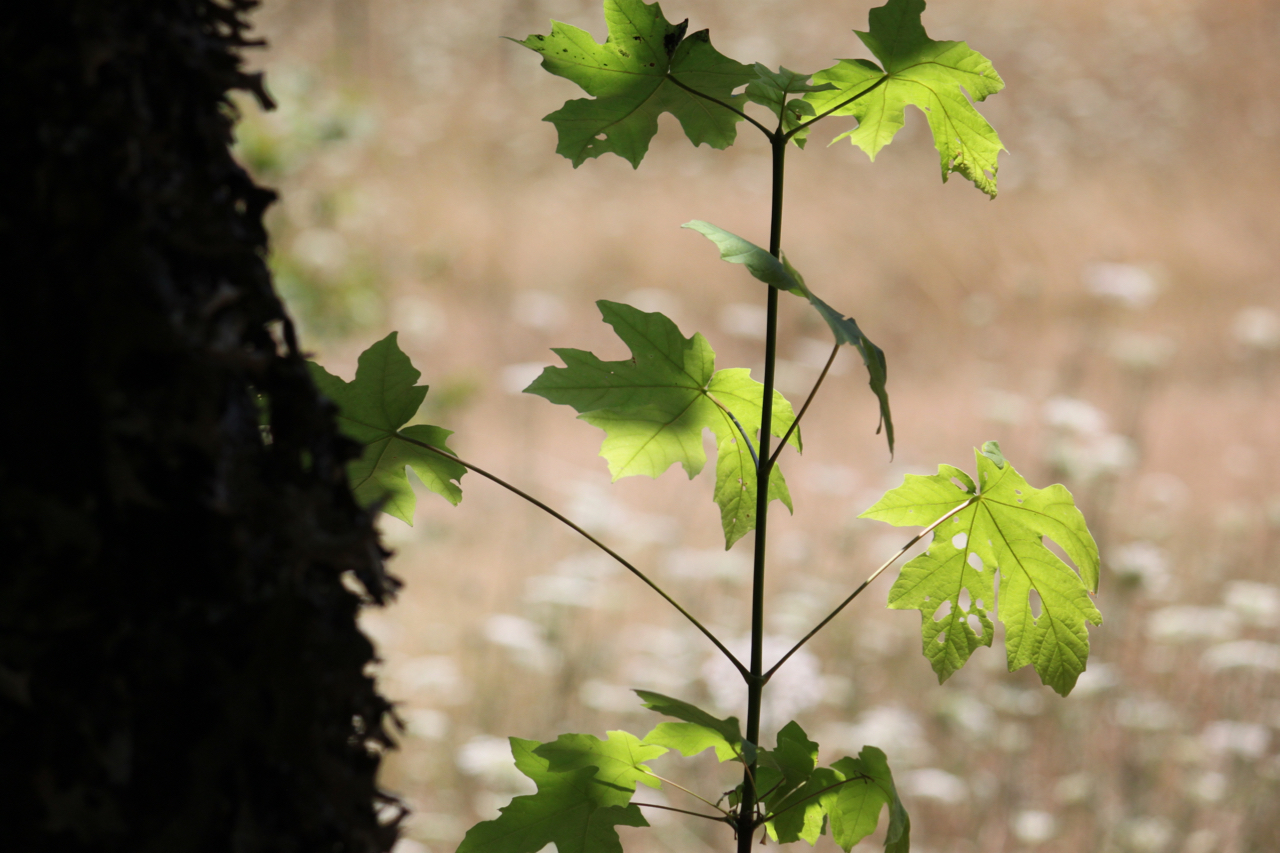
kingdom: Plantae
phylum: Tracheophyta
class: Magnoliopsida
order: Sapindales
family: Sapindaceae
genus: Acer
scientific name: Acer macrophyllum
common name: Oregon maple
